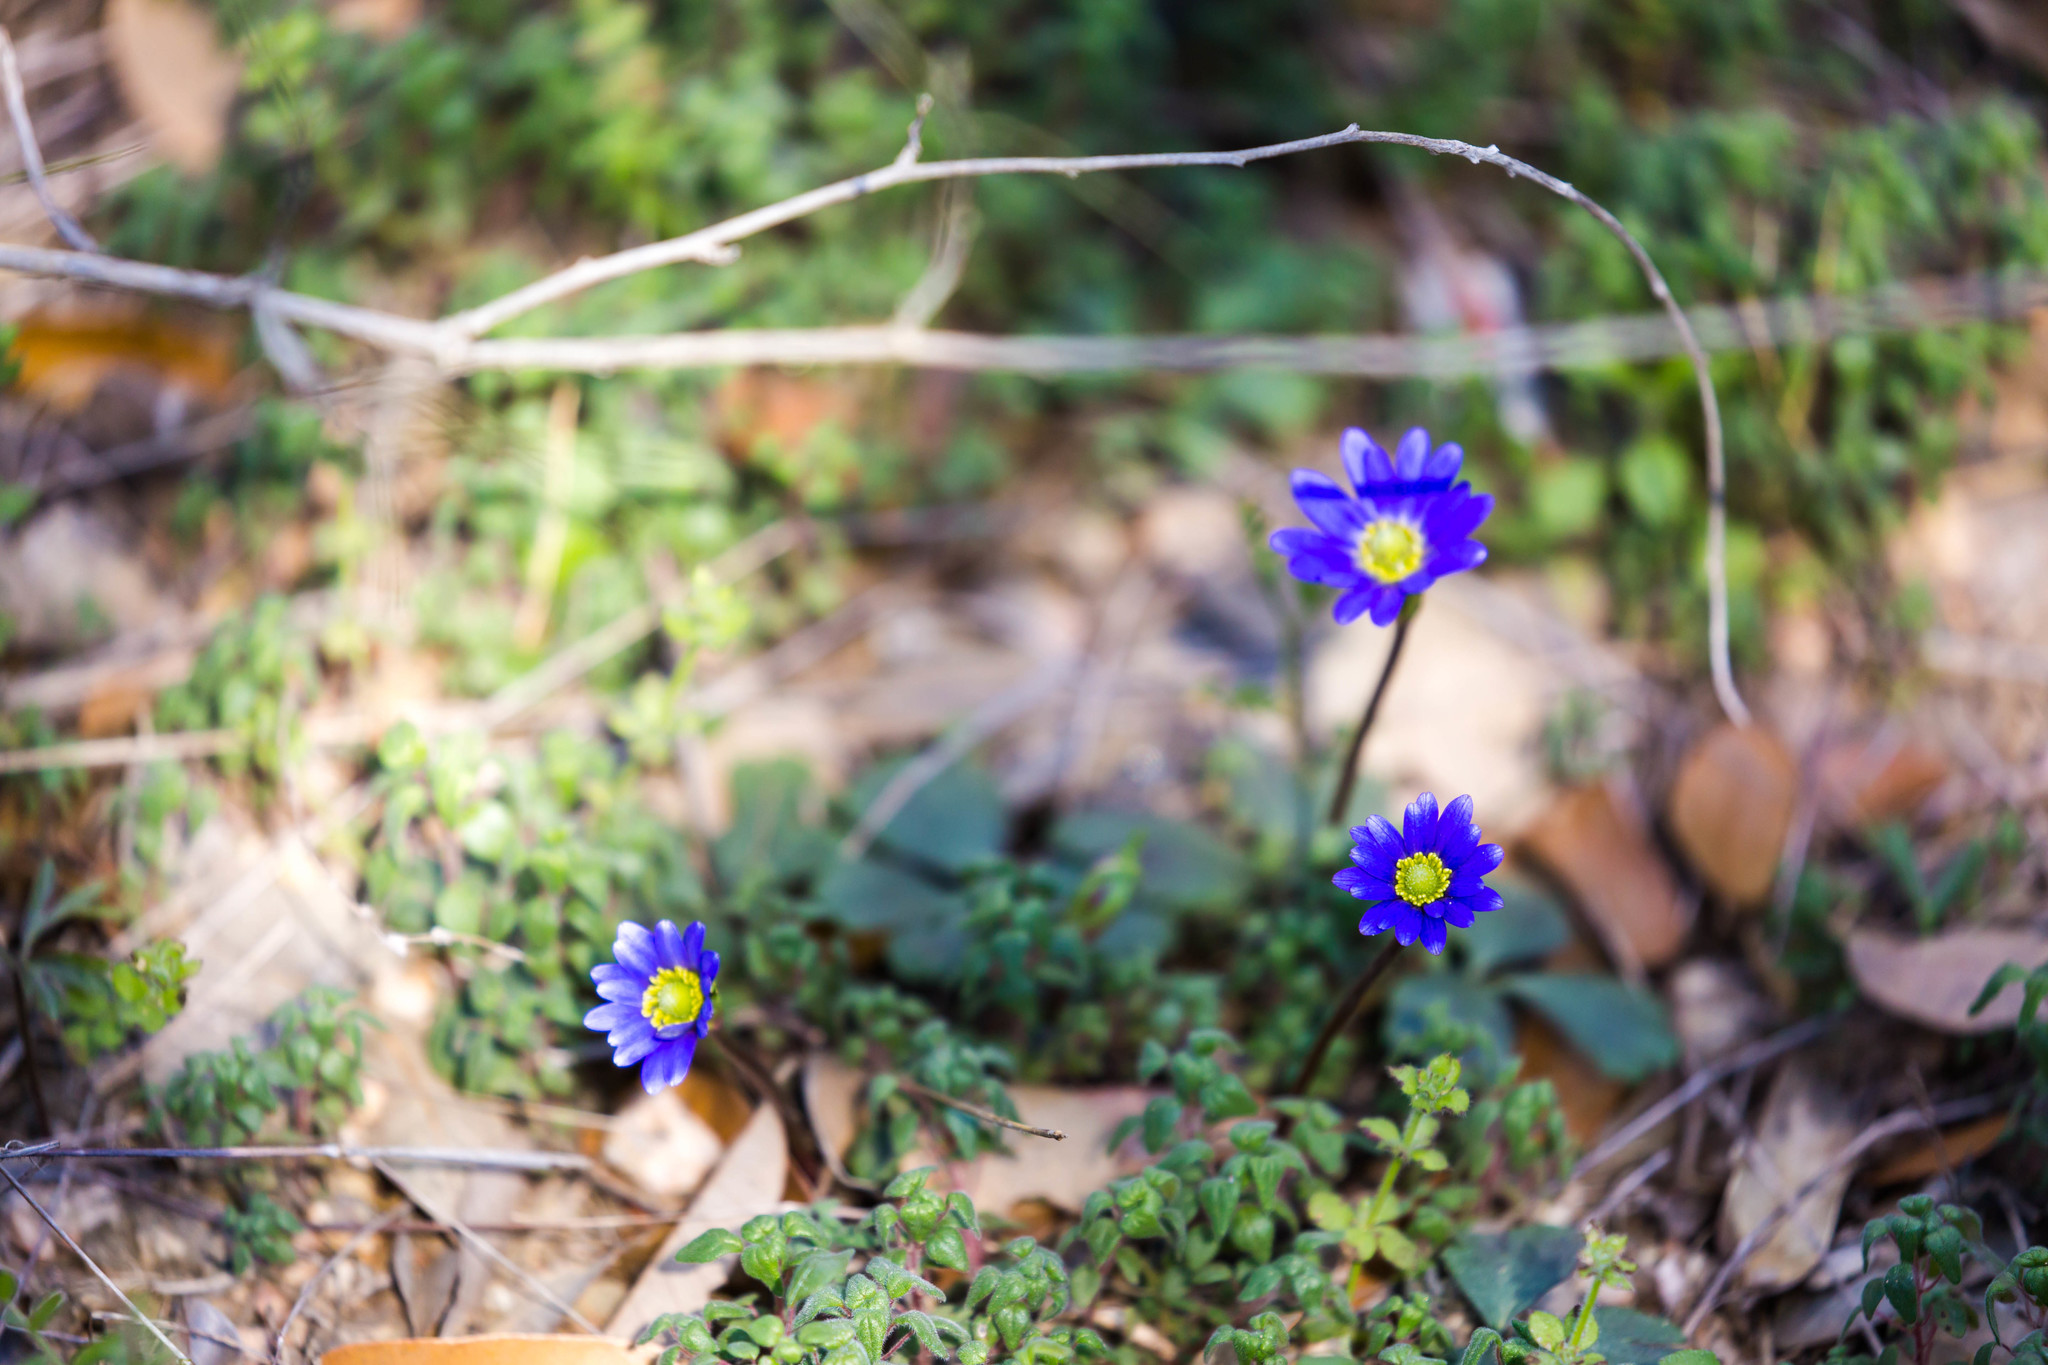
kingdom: Plantae
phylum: Tracheophyta
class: Magnoliopsida
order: Ranunculales
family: Ranunculaceae
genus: Anemone
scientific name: Anemone berlandieri
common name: Ten-petal anemone
